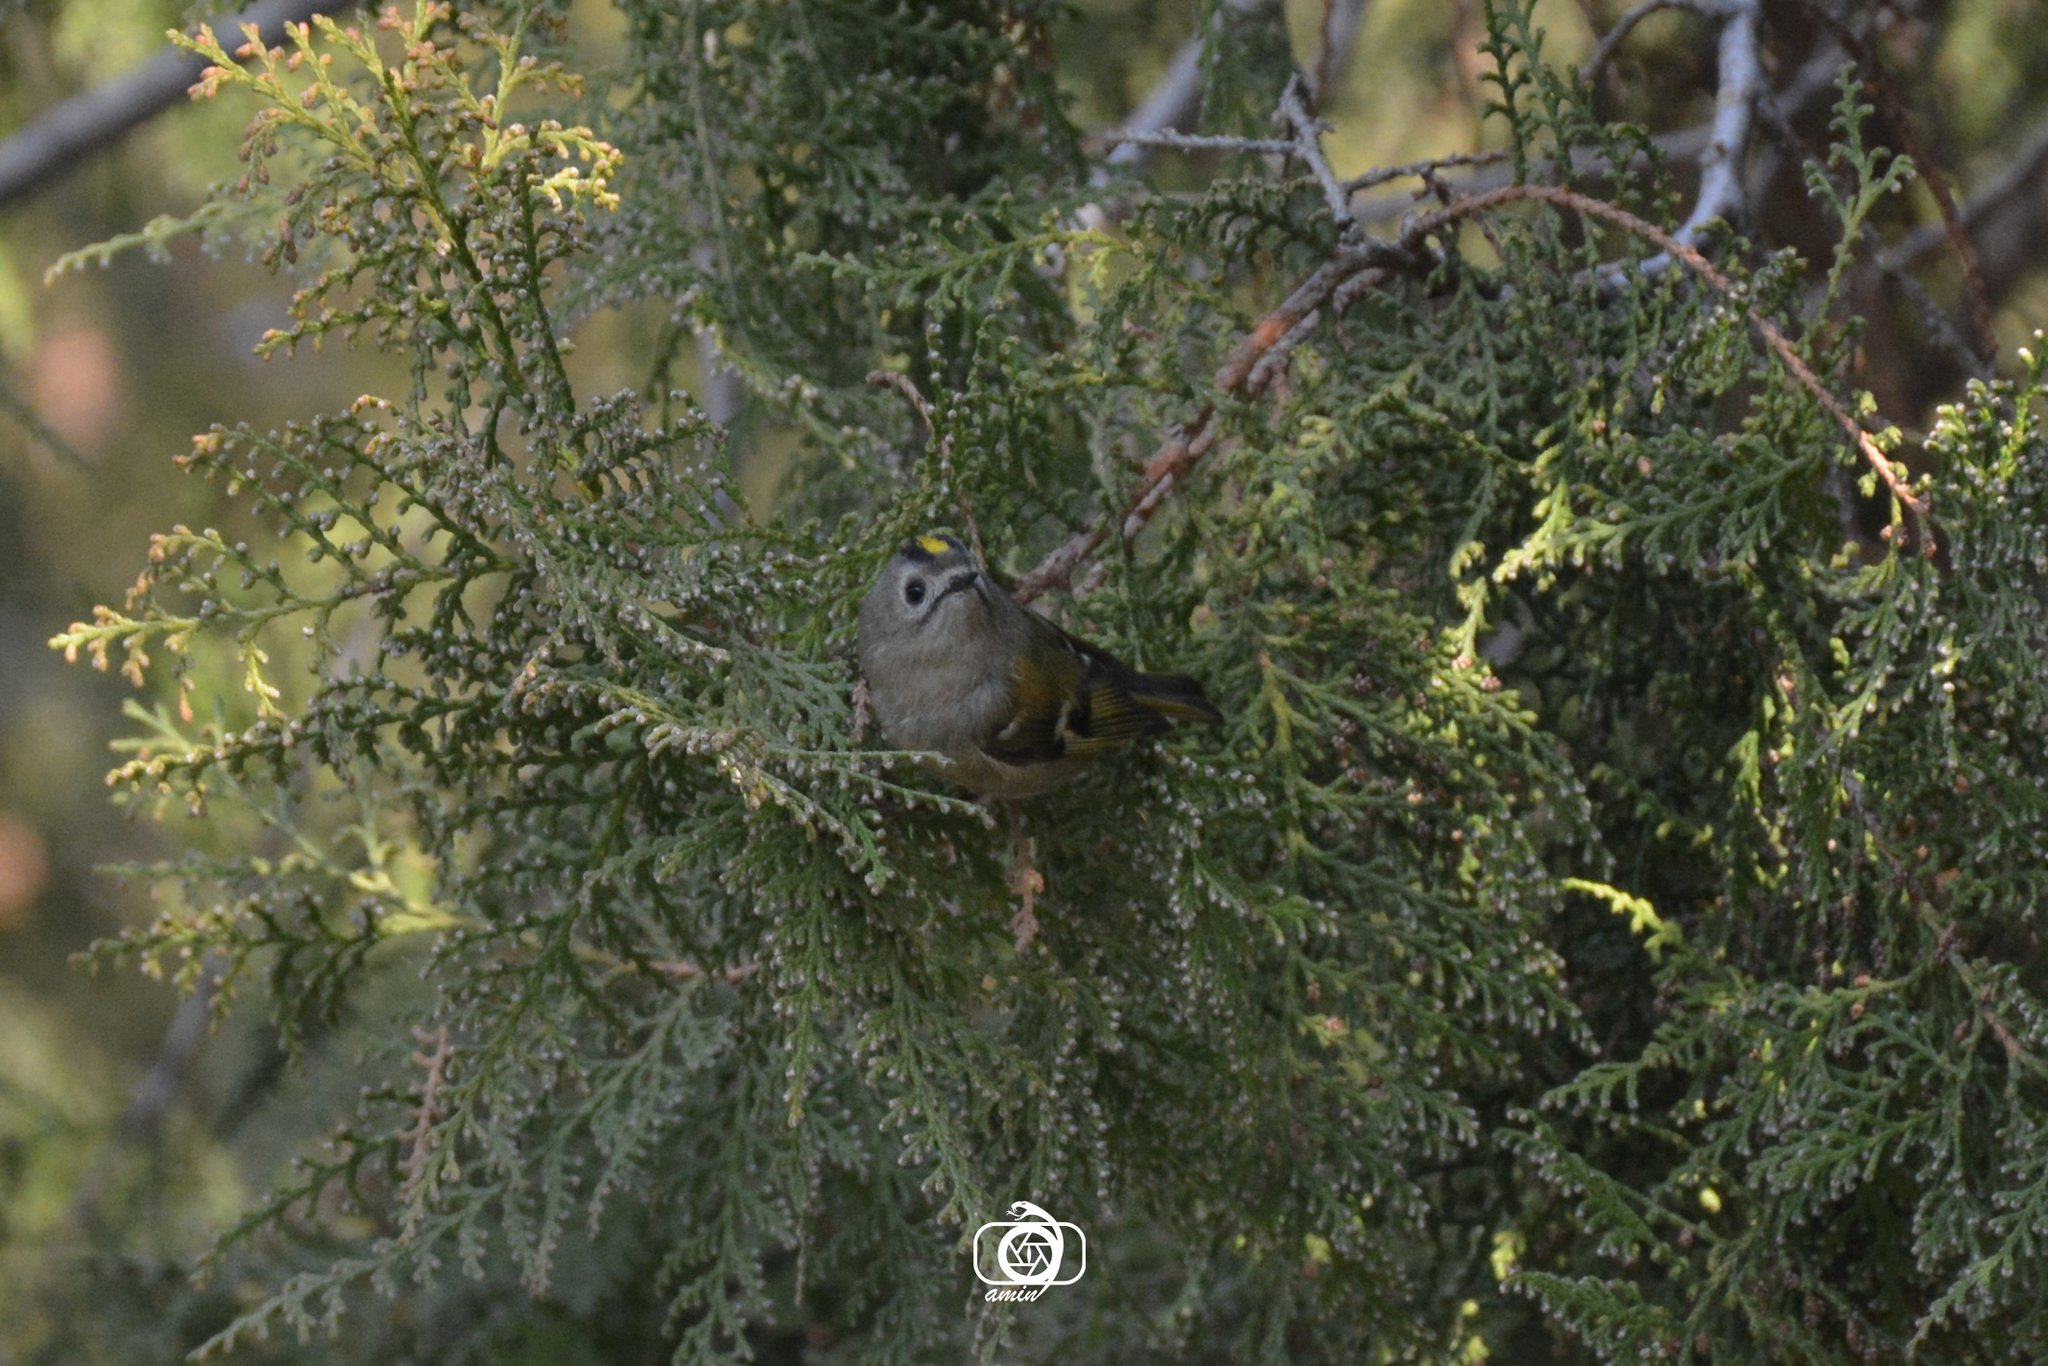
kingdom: Animalia
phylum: Chordata
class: Aves
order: Passeriformes
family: Regulidae
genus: Regulus
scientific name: Regulus regulus
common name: Goldcrest
